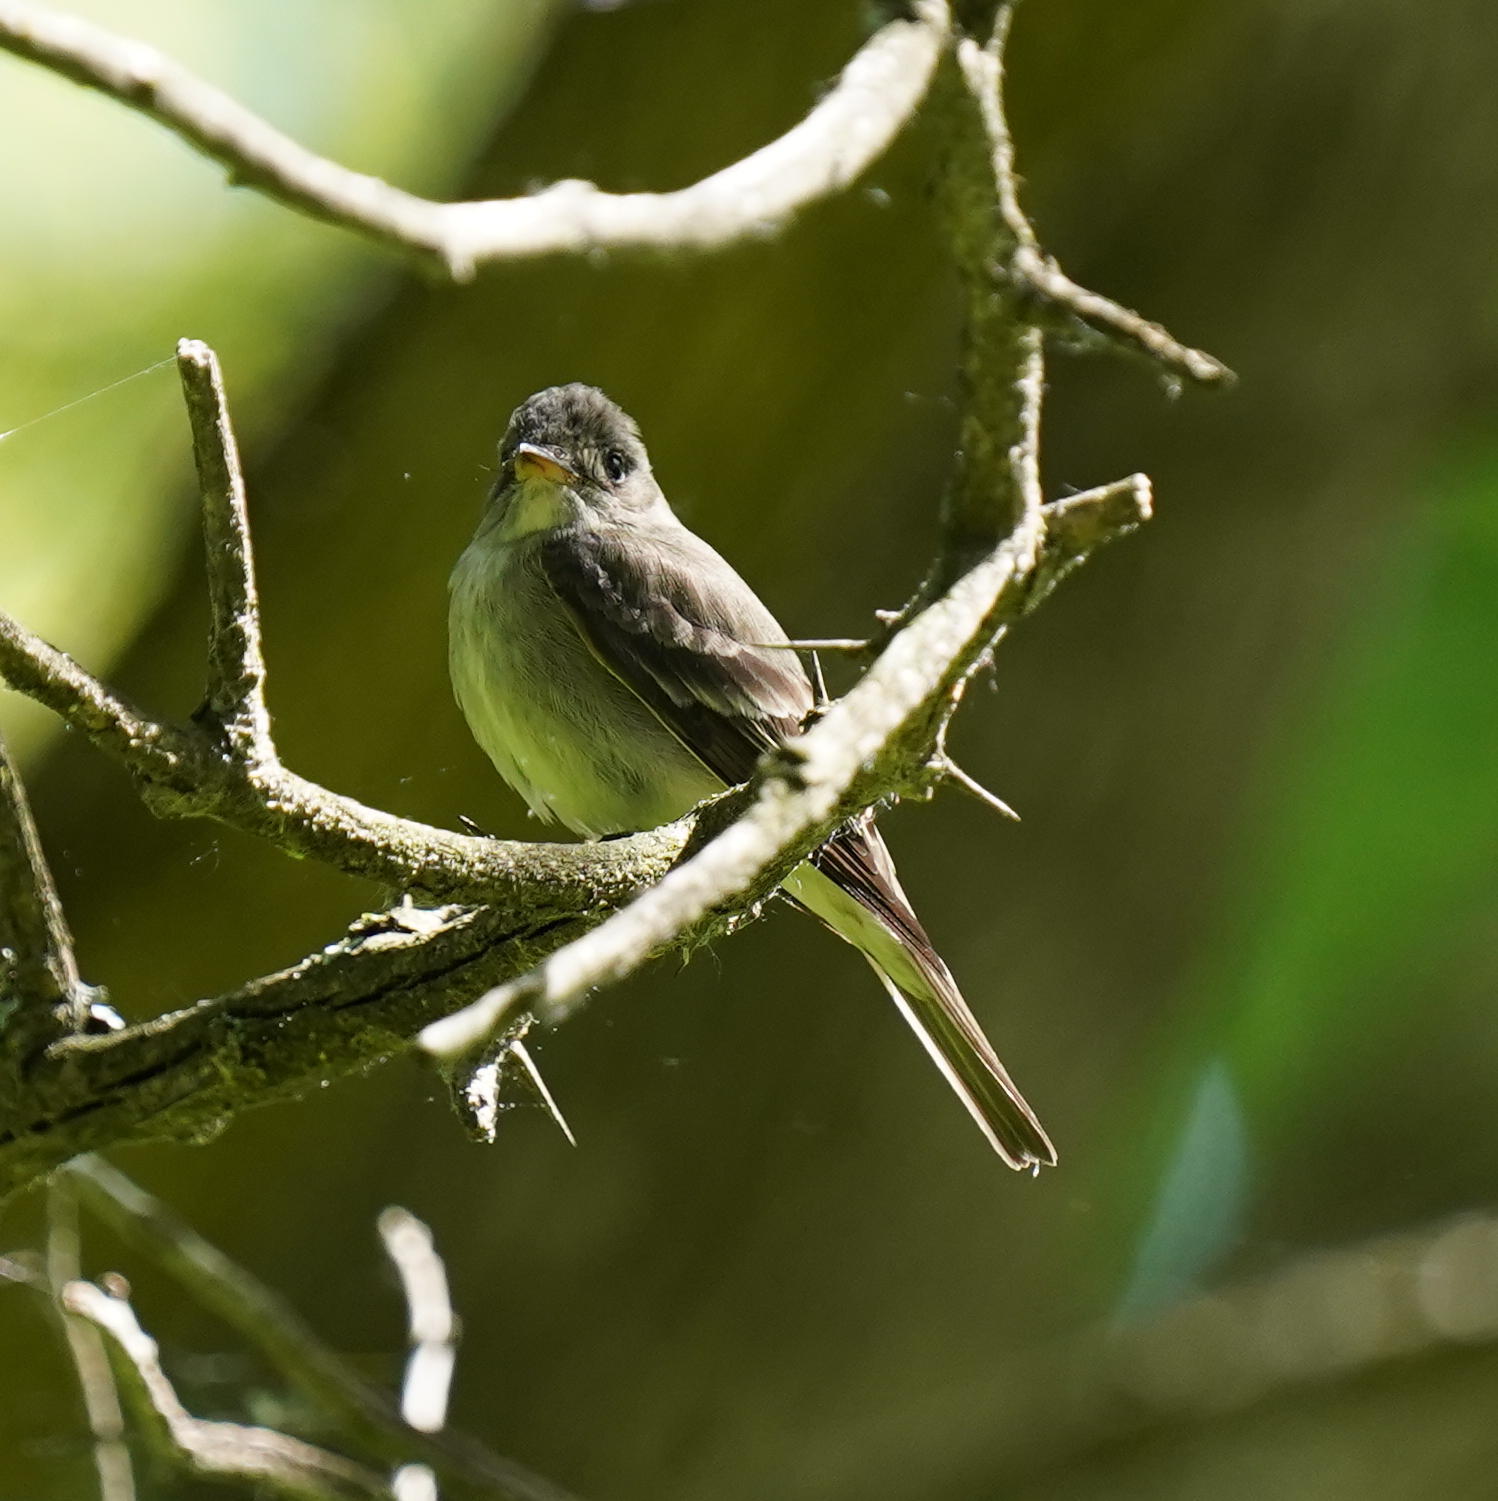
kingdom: Animalia
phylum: Chordata
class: Aves
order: Passeriformes
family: Tyrannidae
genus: Contopus
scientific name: Contopus virens
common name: Eastern wood-pewee
